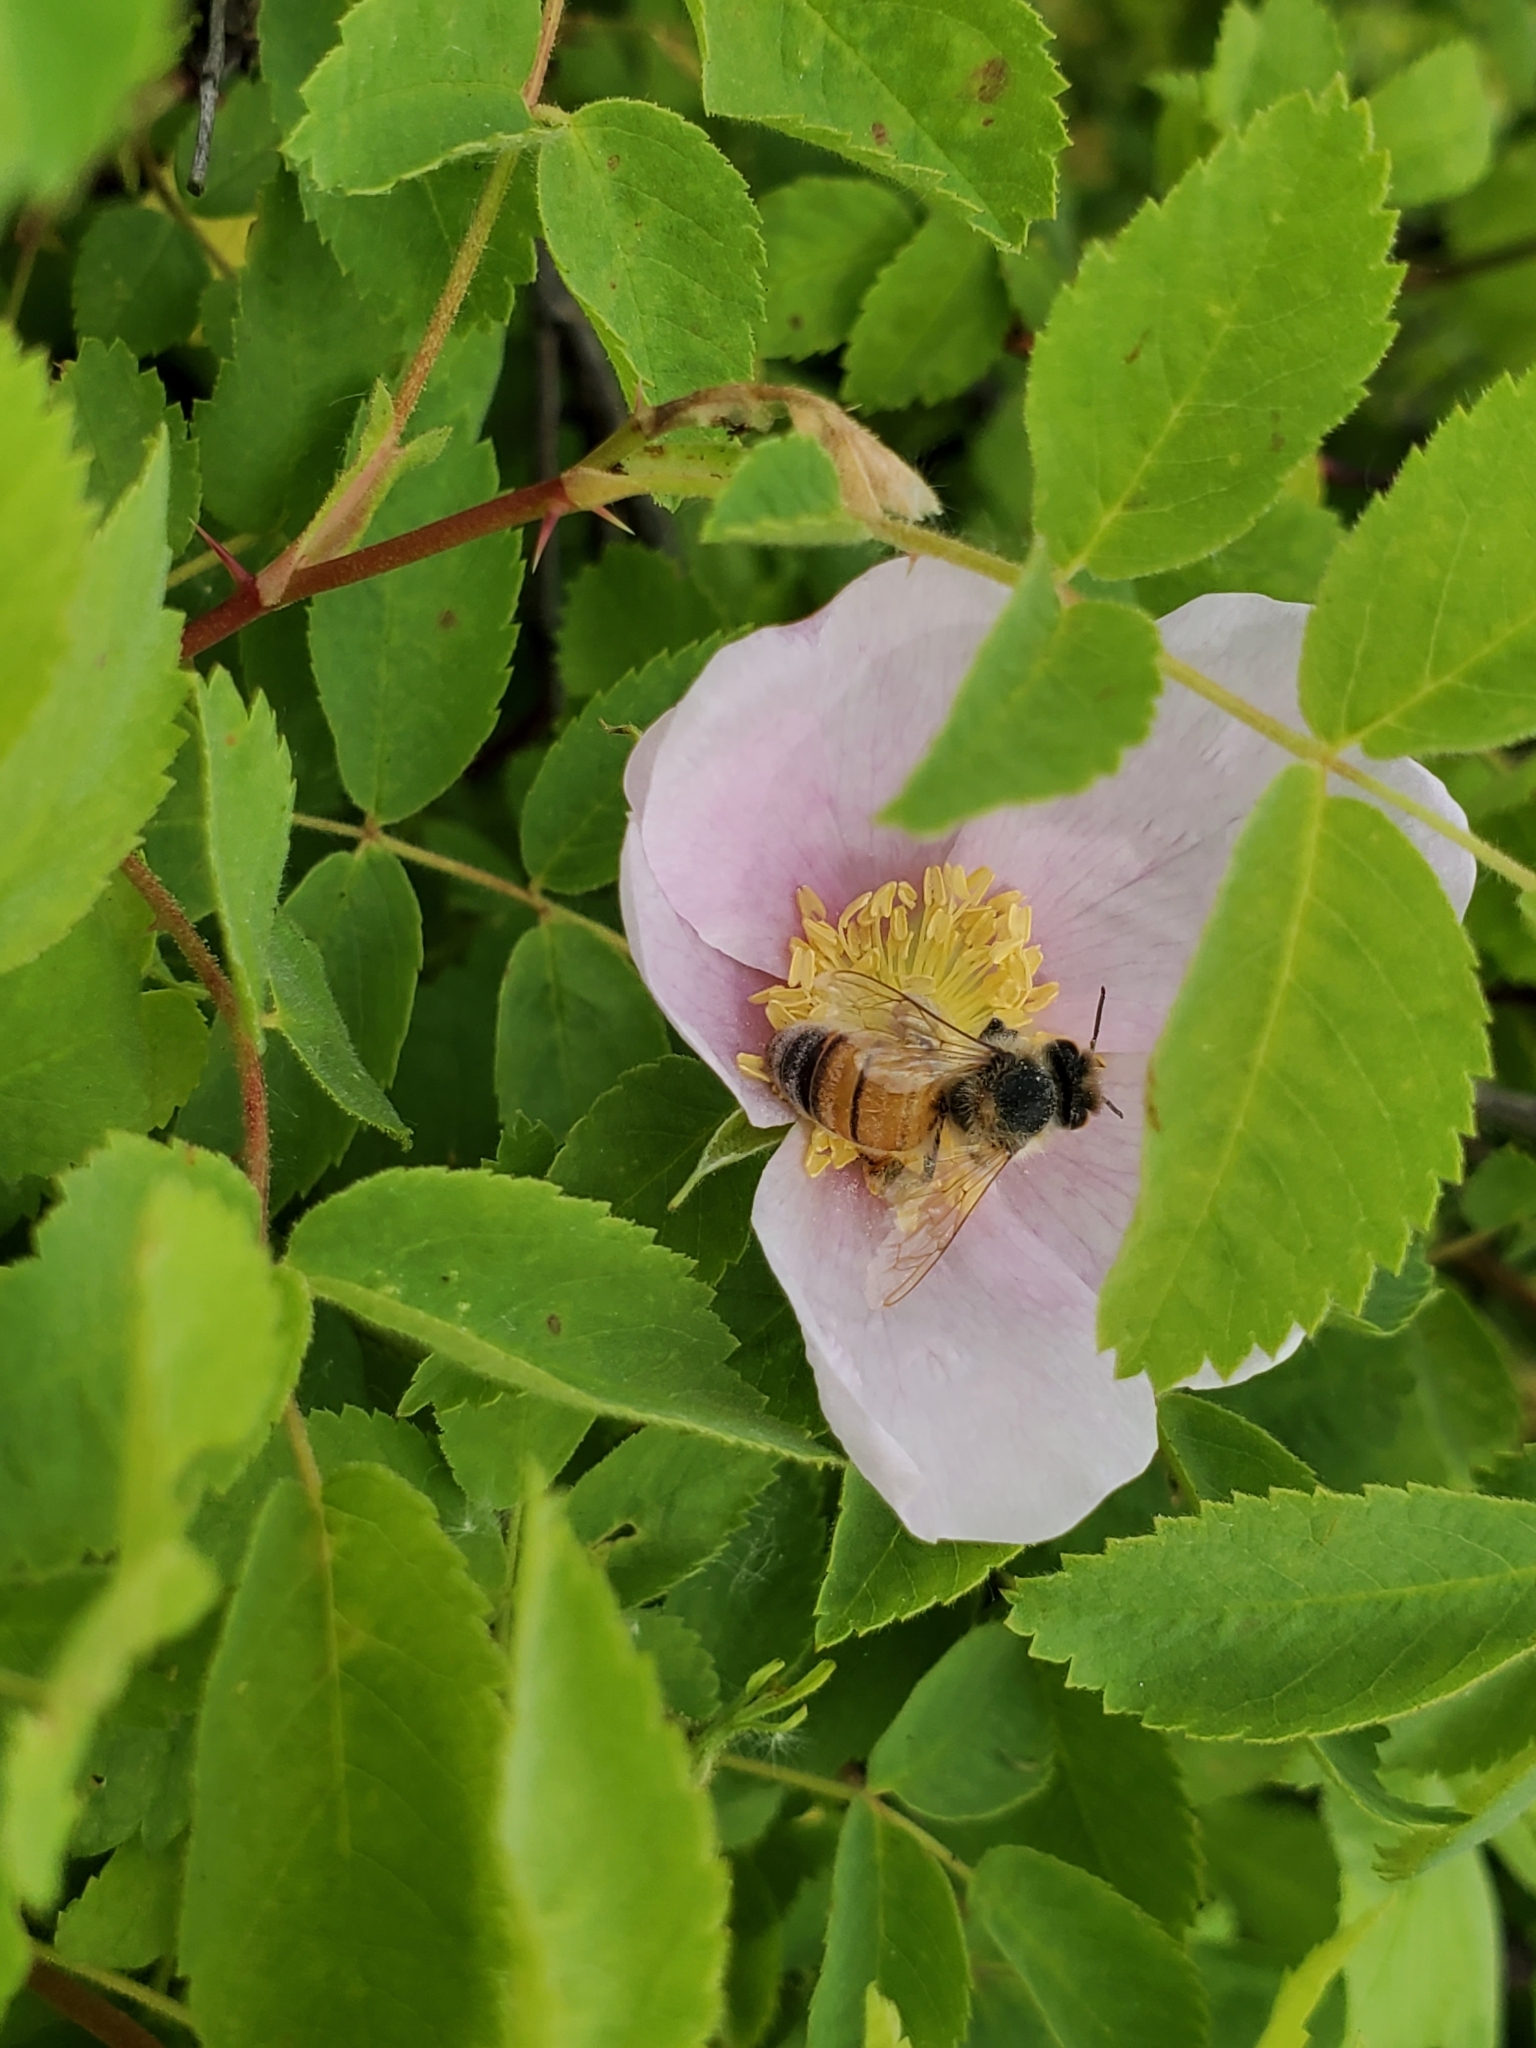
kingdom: Animalia
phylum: Arthropoda
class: Insecta
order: Hymenoptera
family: Apidae
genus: Apis
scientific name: Apis mellifera
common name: Honey bee
